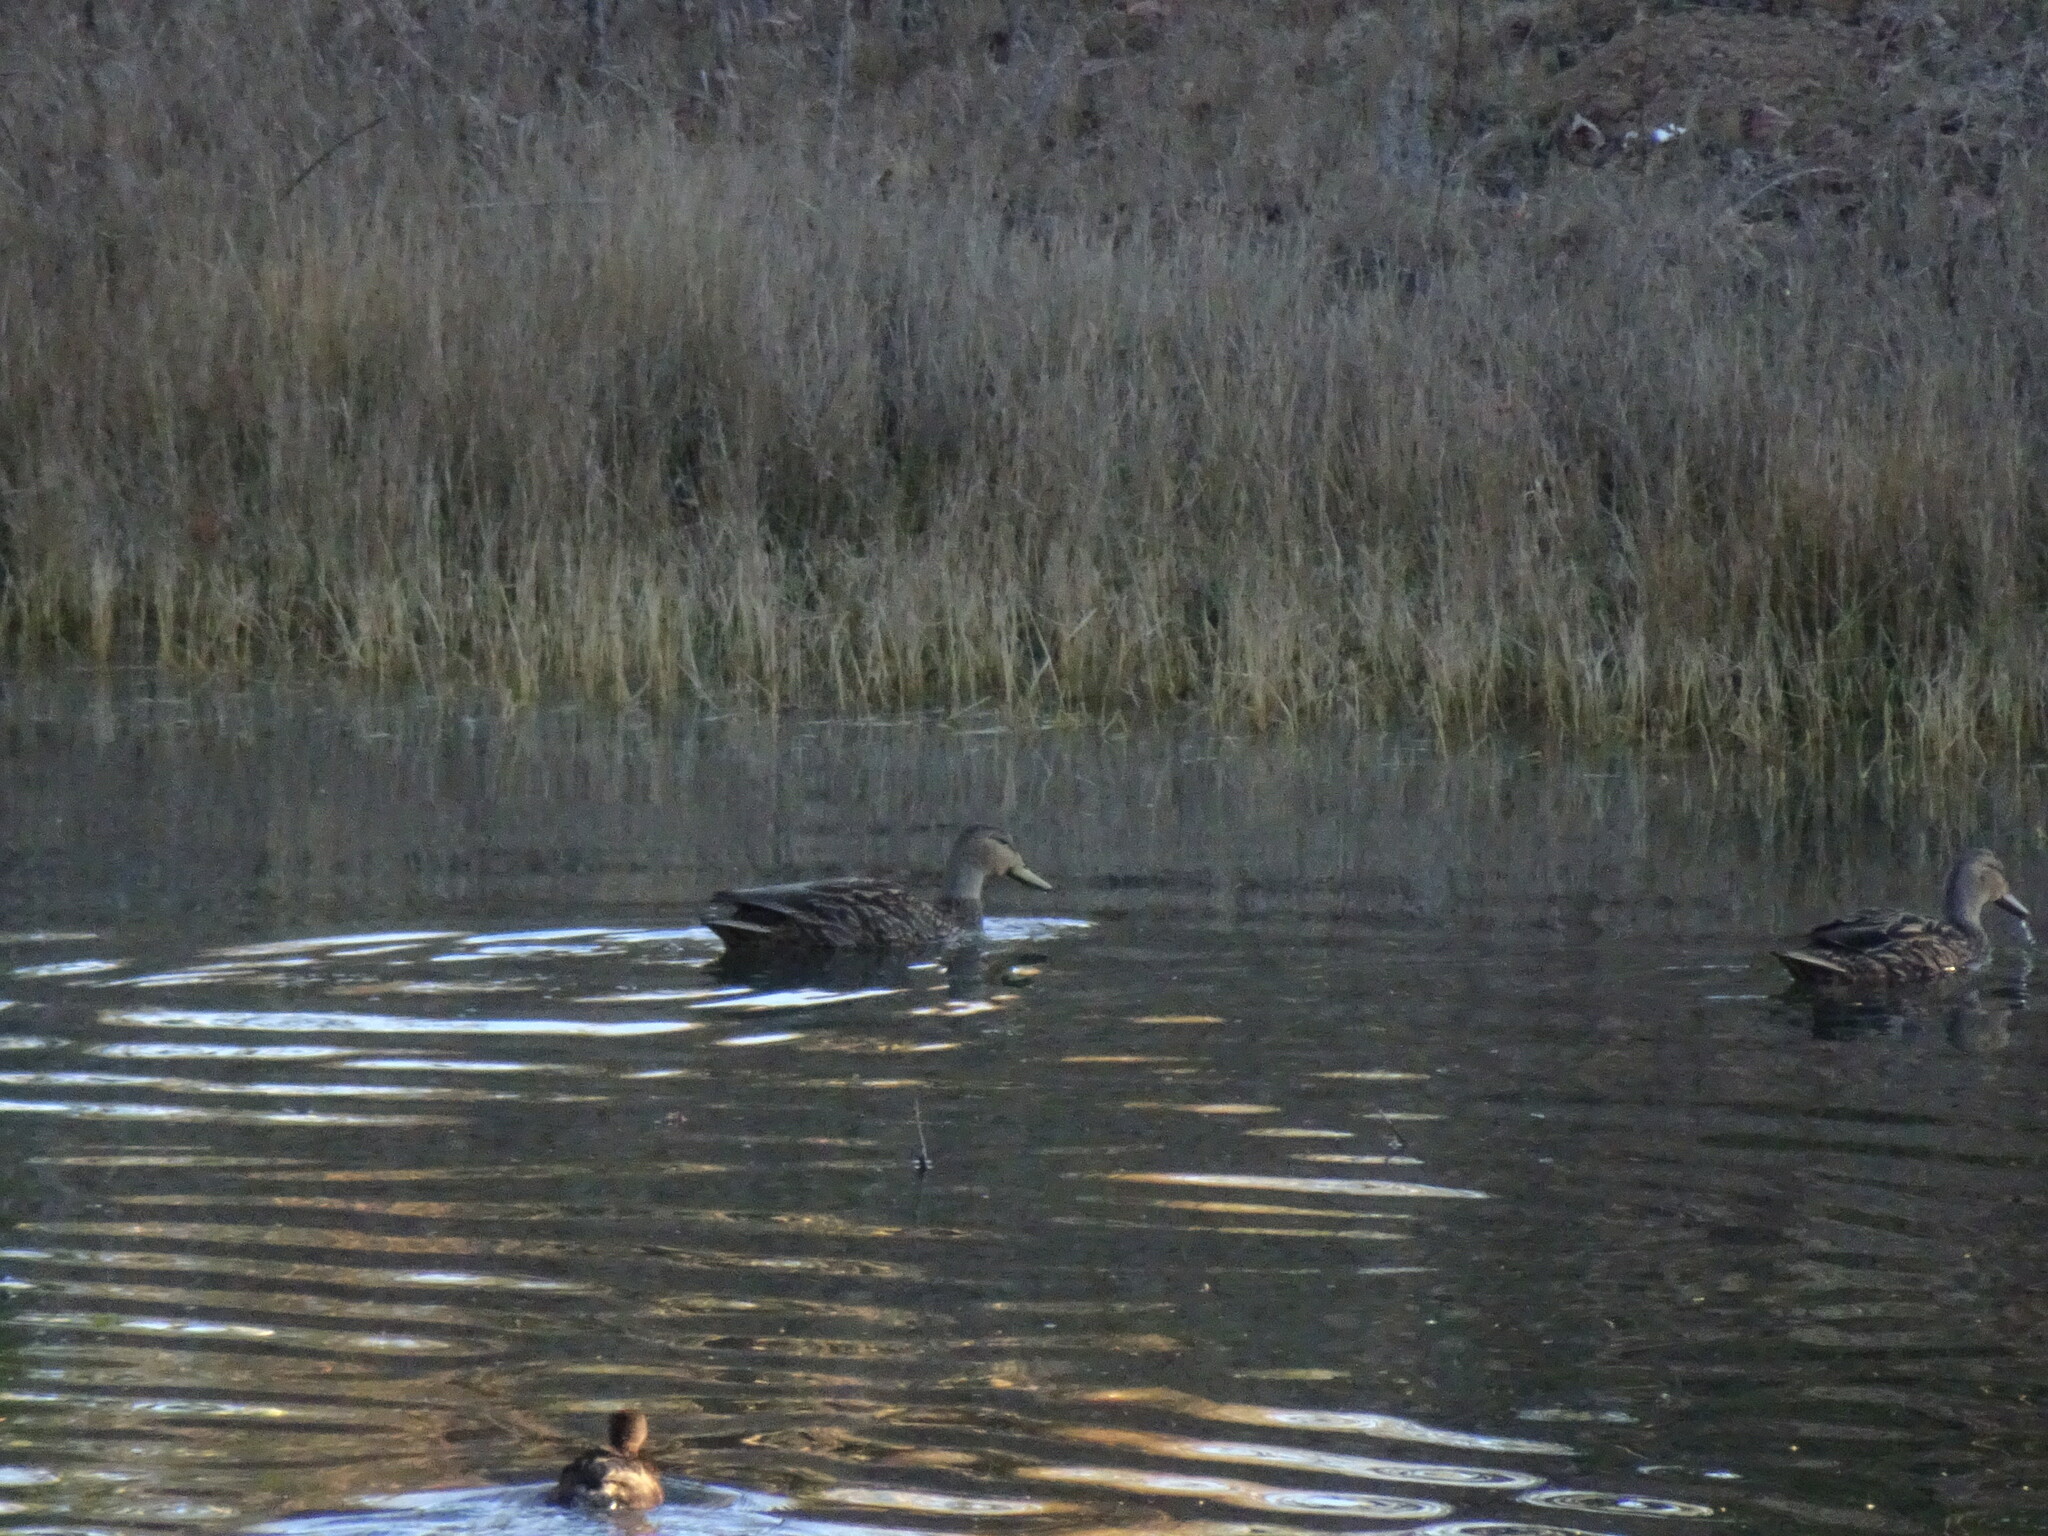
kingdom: Animalia
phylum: Chordata
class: Aves
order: Anseriformes
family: Anatidae
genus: Anas
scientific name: Anas diazi
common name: Mexican duck
